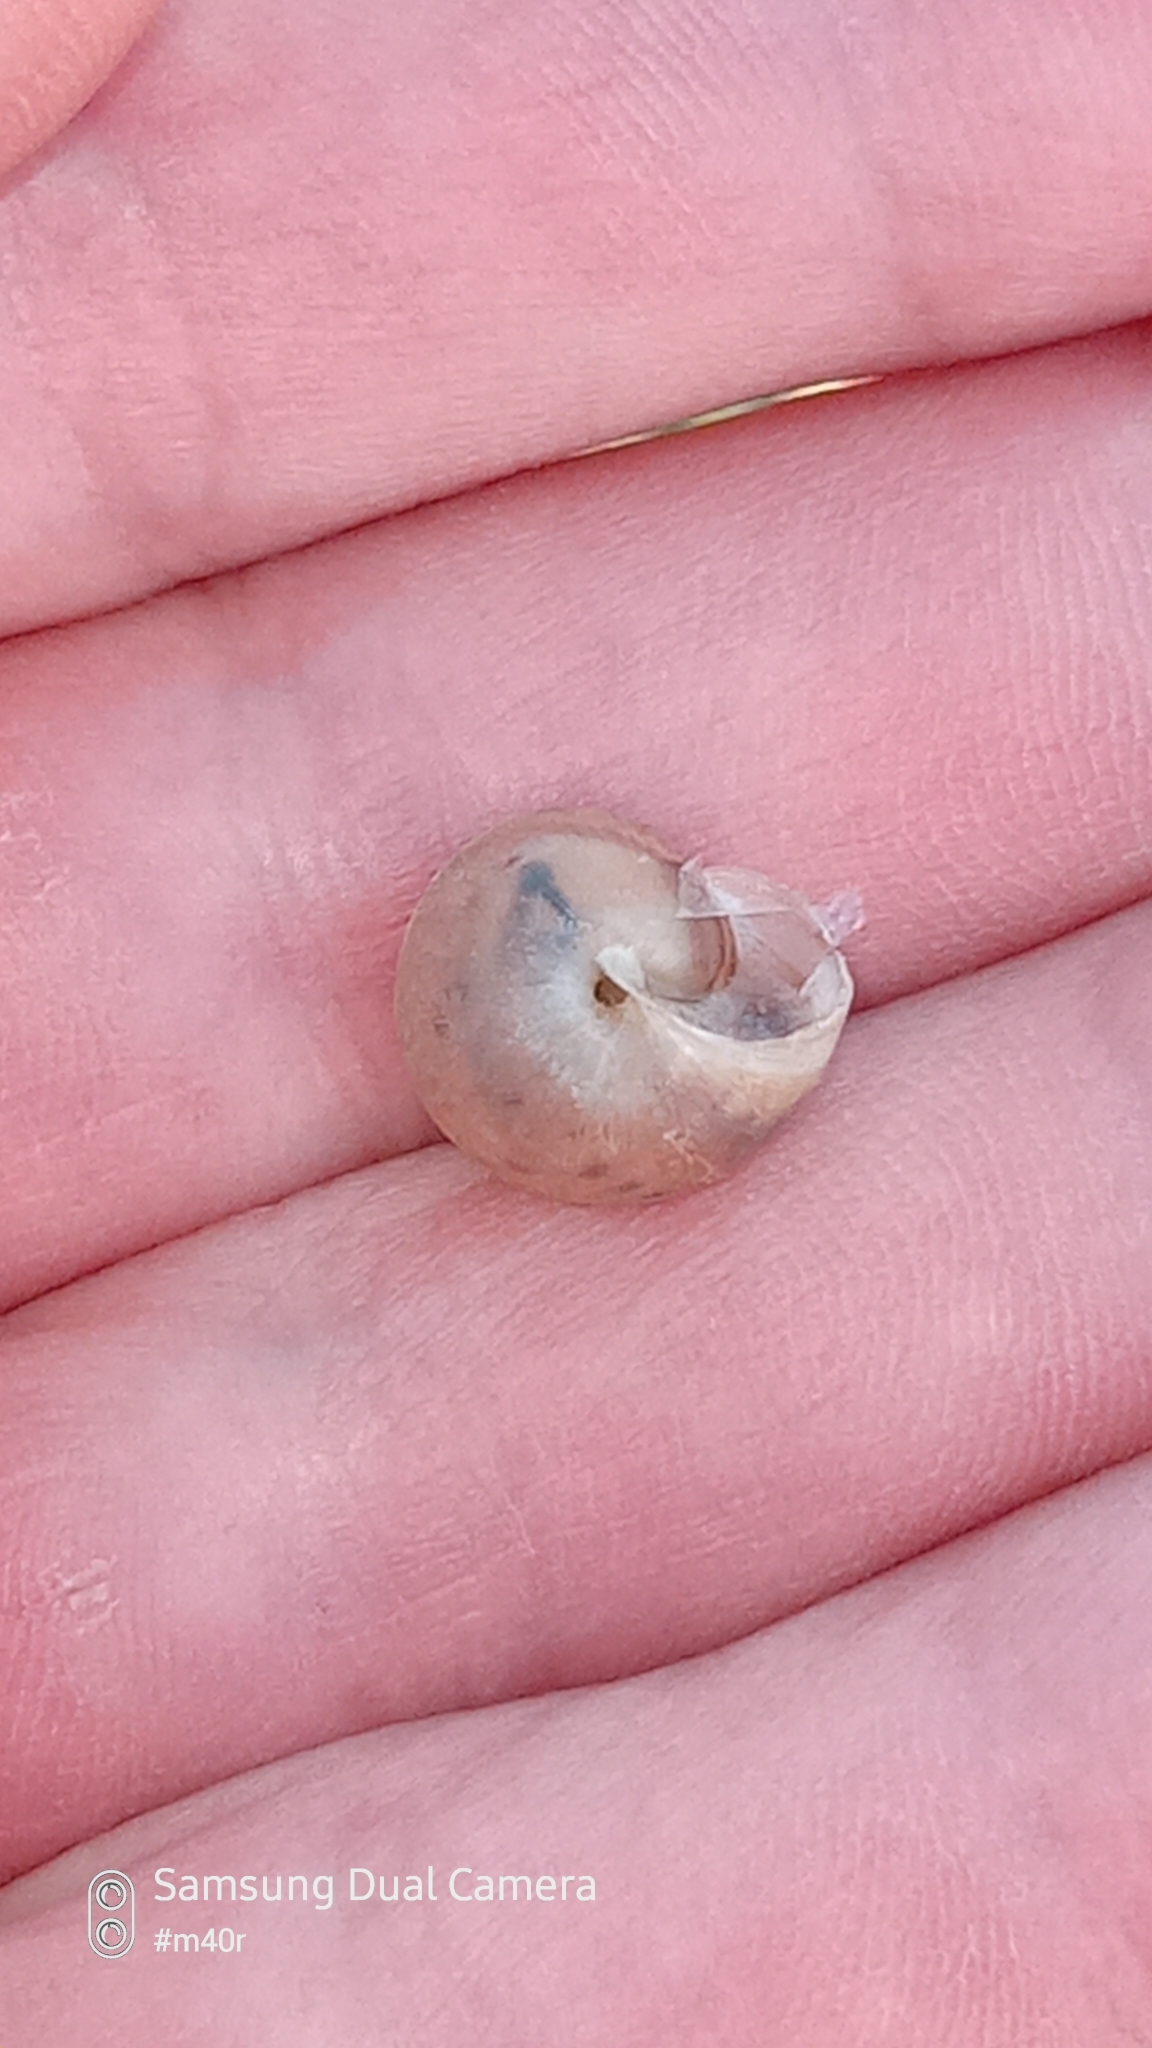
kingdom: Animalia
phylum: Mollusca
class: Gastropoda
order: Stylommatophora
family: Hygromiidae
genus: Harmozica
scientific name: Harmozica ravergiensis
